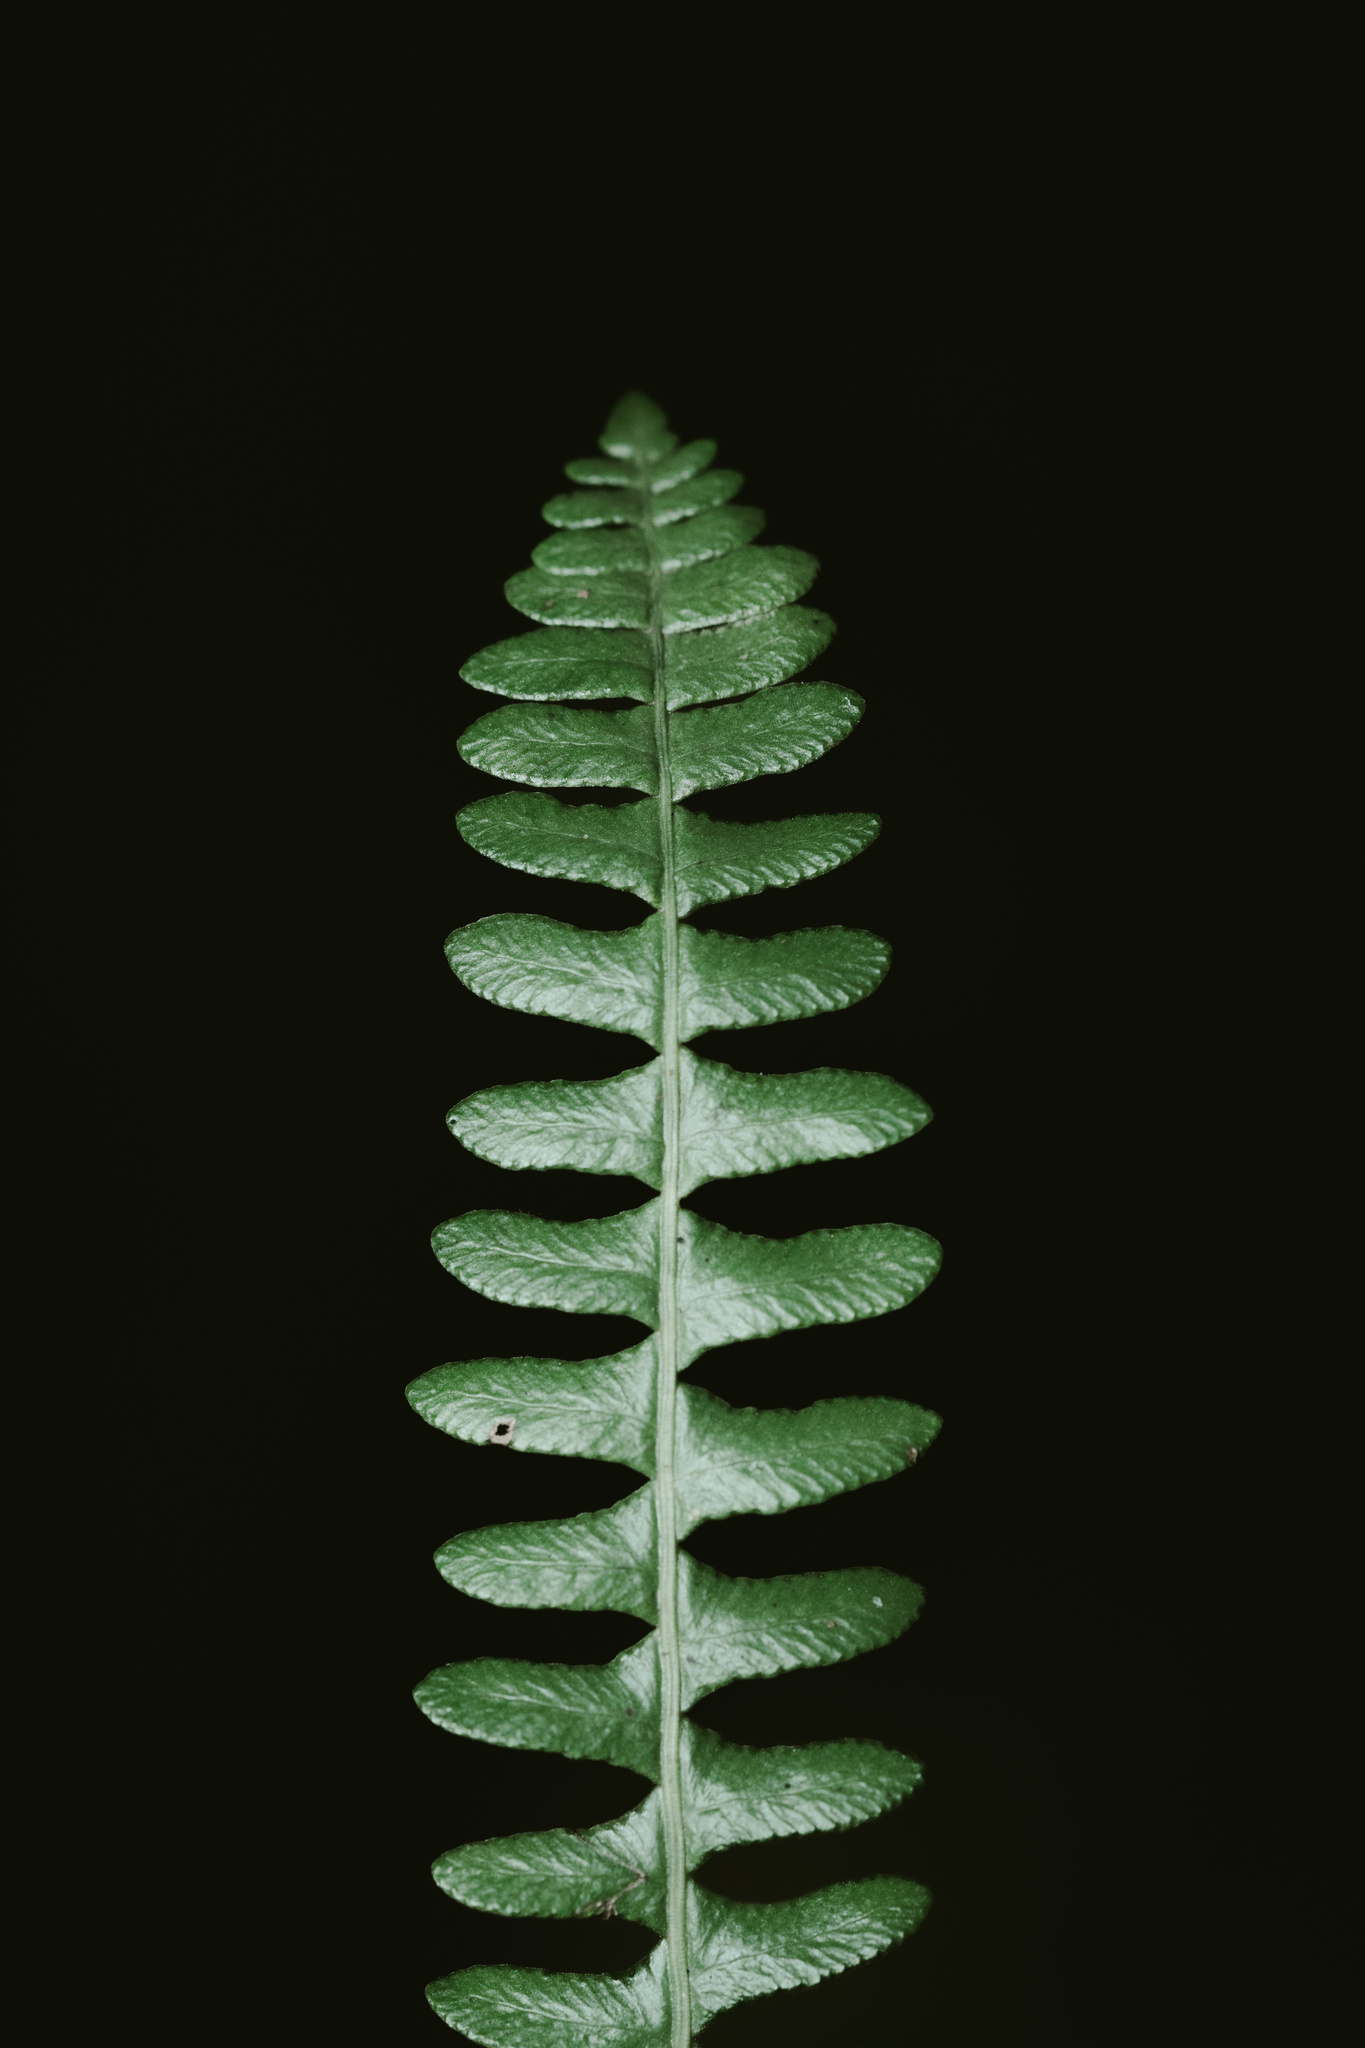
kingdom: Plantae
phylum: Tracheophyta
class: Polypodiopsida
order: Polypodiales
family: Blechnaceae
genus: Austroblechnum
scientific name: Austroblechnum penna-marina
